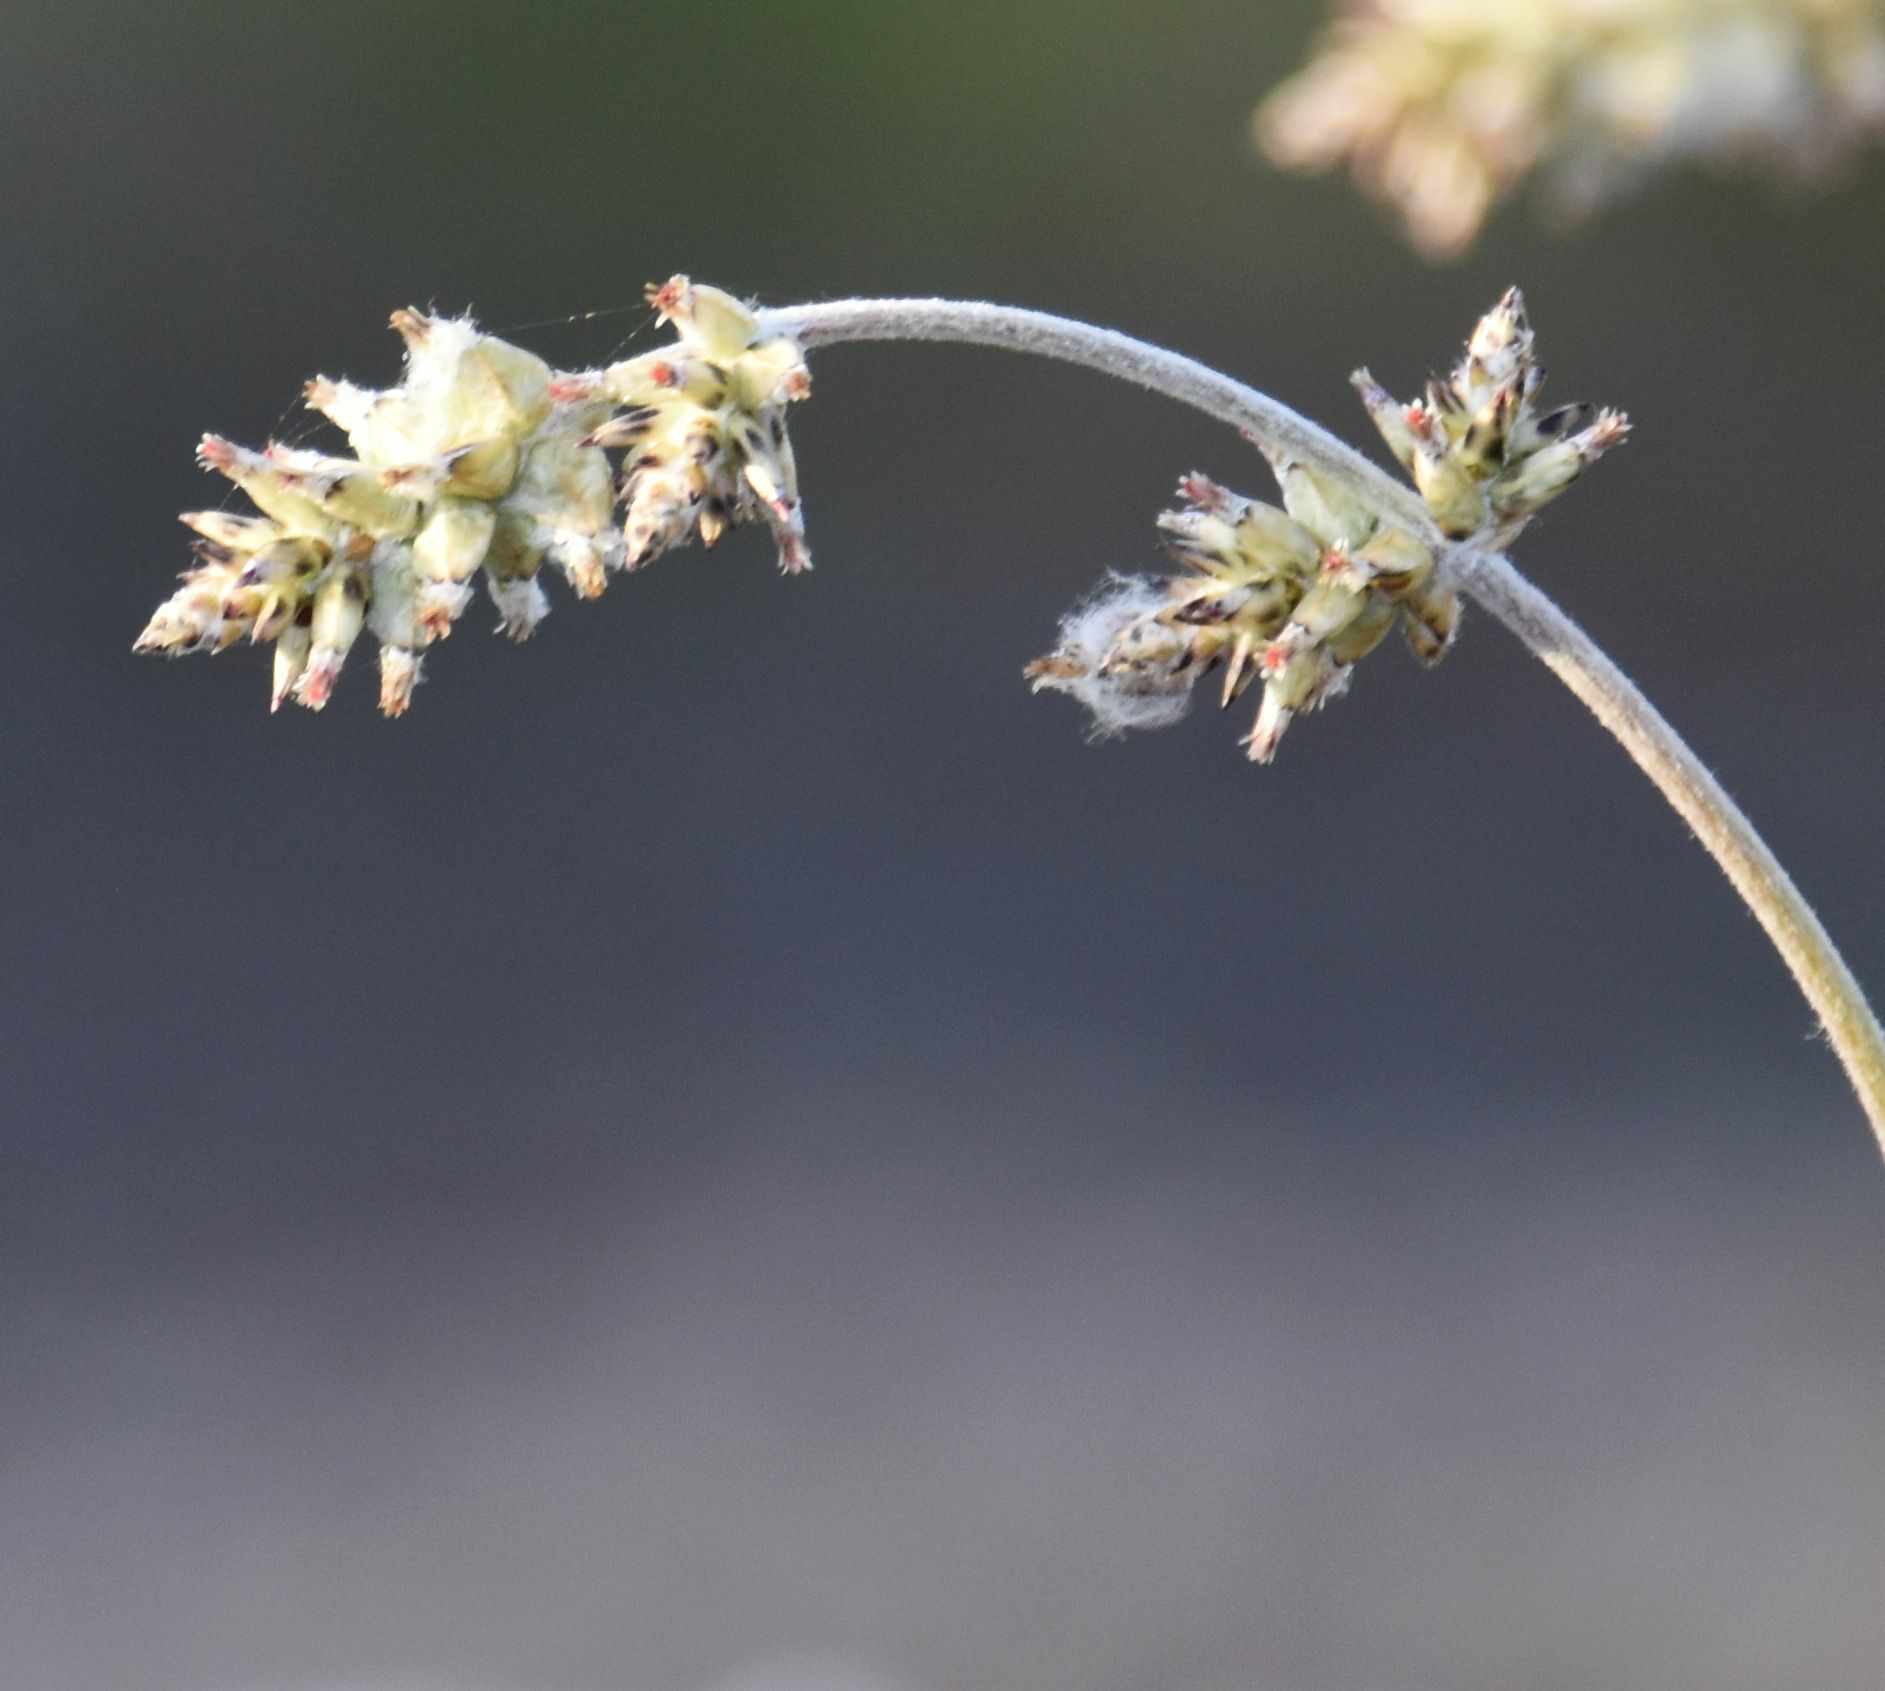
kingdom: Plantae
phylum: Tracheophyta
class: Magnoliopsida
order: Caryophyllales
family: Amaranthaceae
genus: Froelichia
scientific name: Froelichia xantusii
